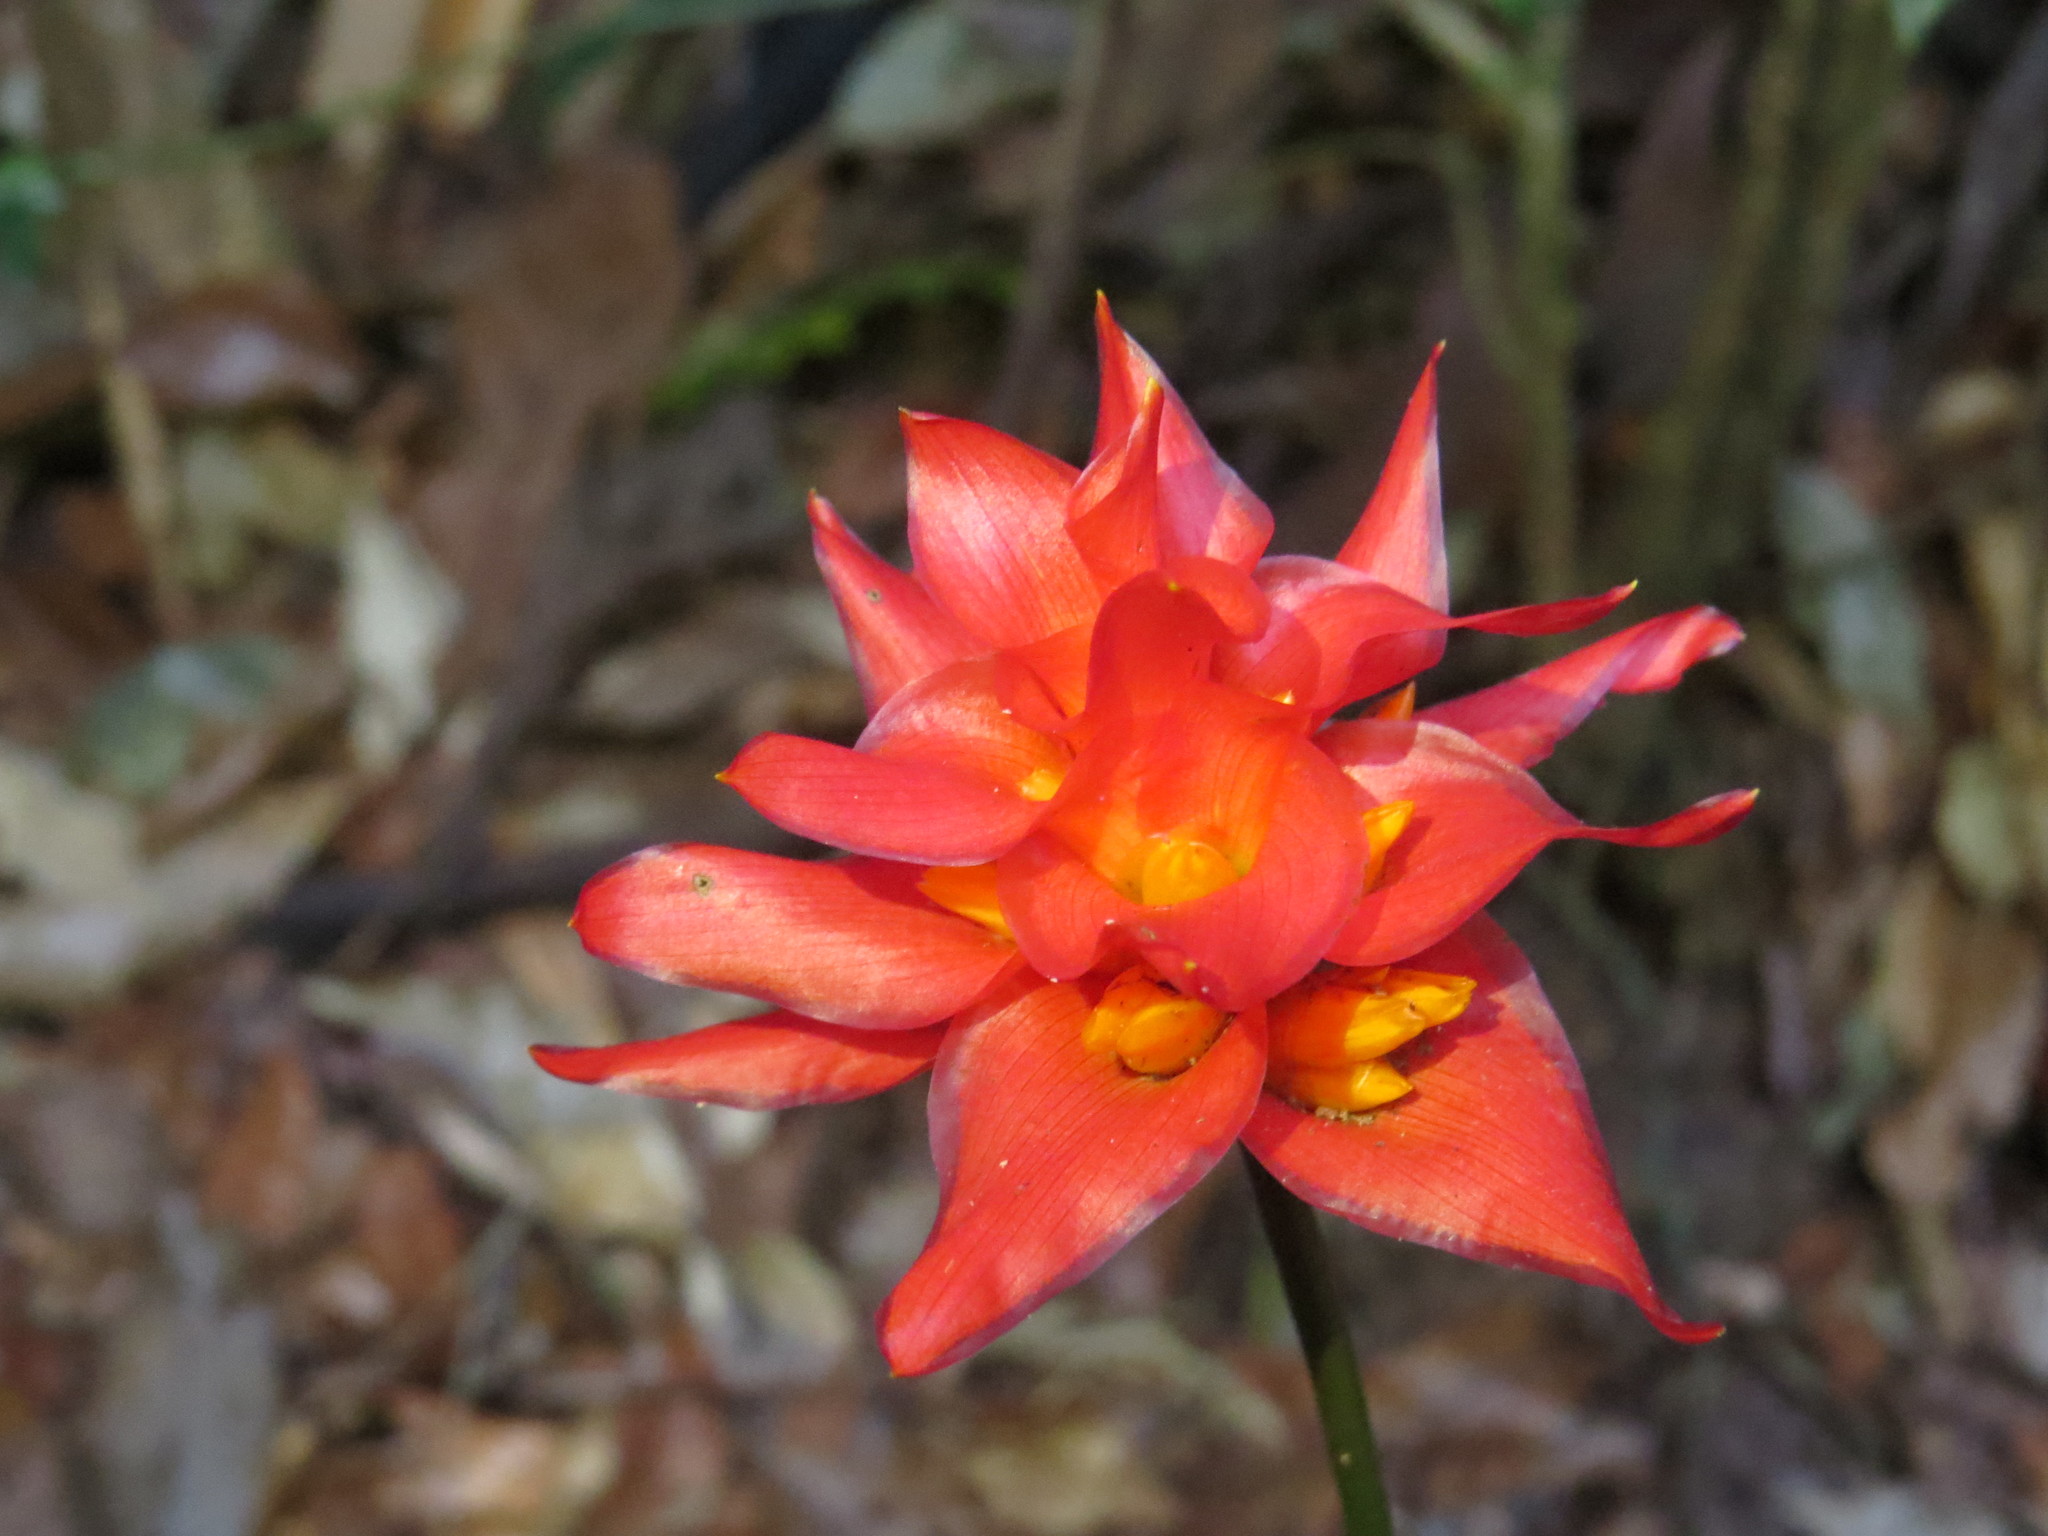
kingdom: Plantae
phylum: Tracheophyta
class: Liliopsida
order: Zingiberales
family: Marantaceae
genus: Goeppertia
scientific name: Goeppertia colorata
